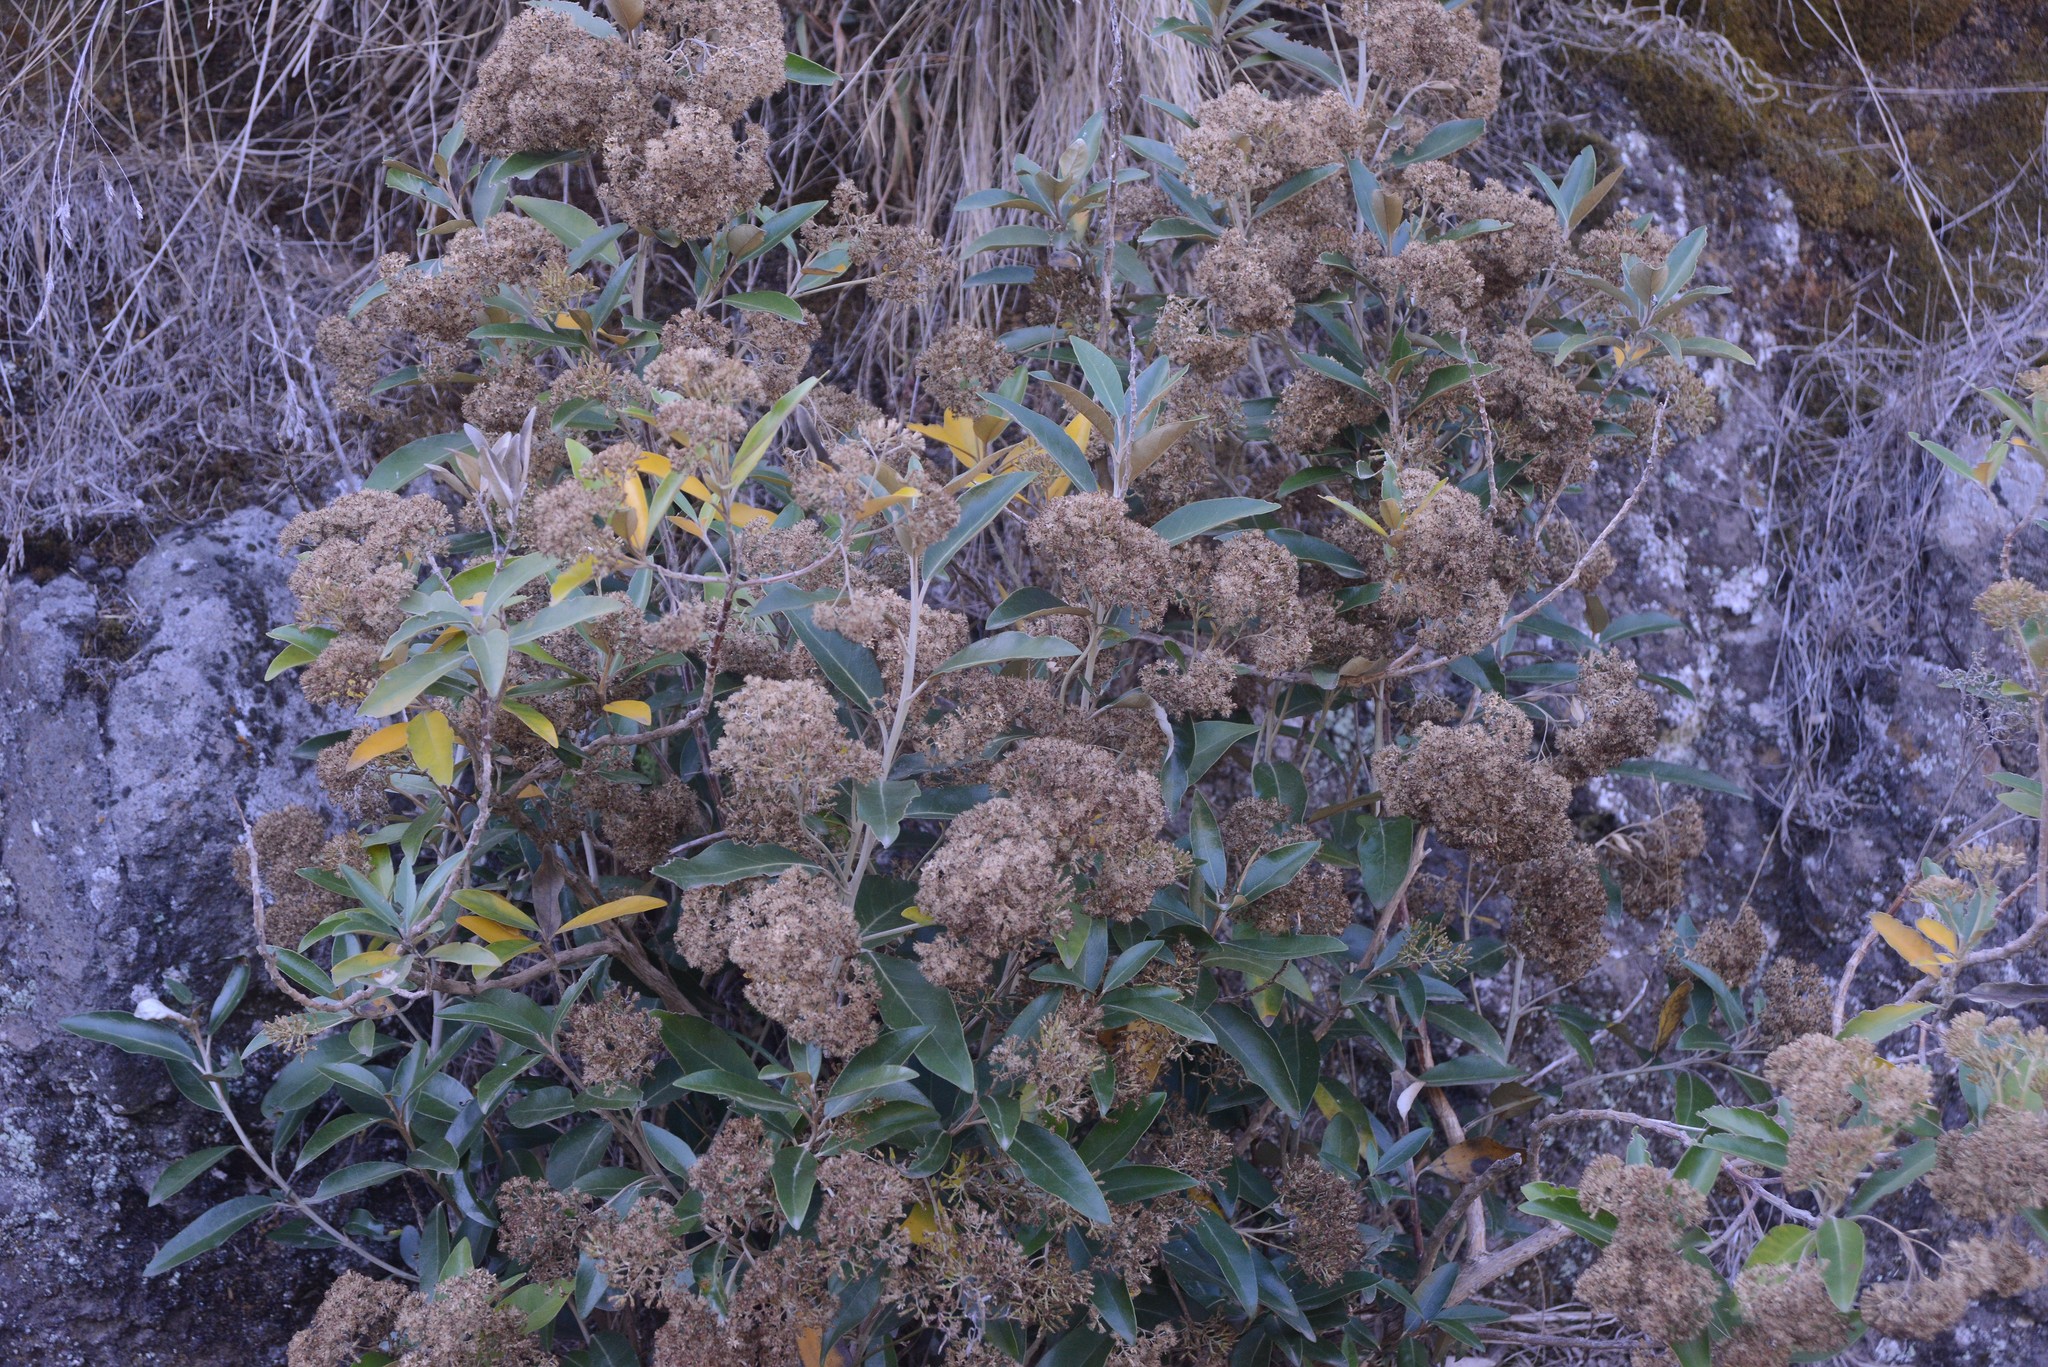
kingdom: Plantae
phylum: Tracheophyta
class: Magnoliopsida
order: Asterales
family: Asteraceae
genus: Olearia
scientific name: Olearia avicenniifolia
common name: Mangrove-leaf daisybush
